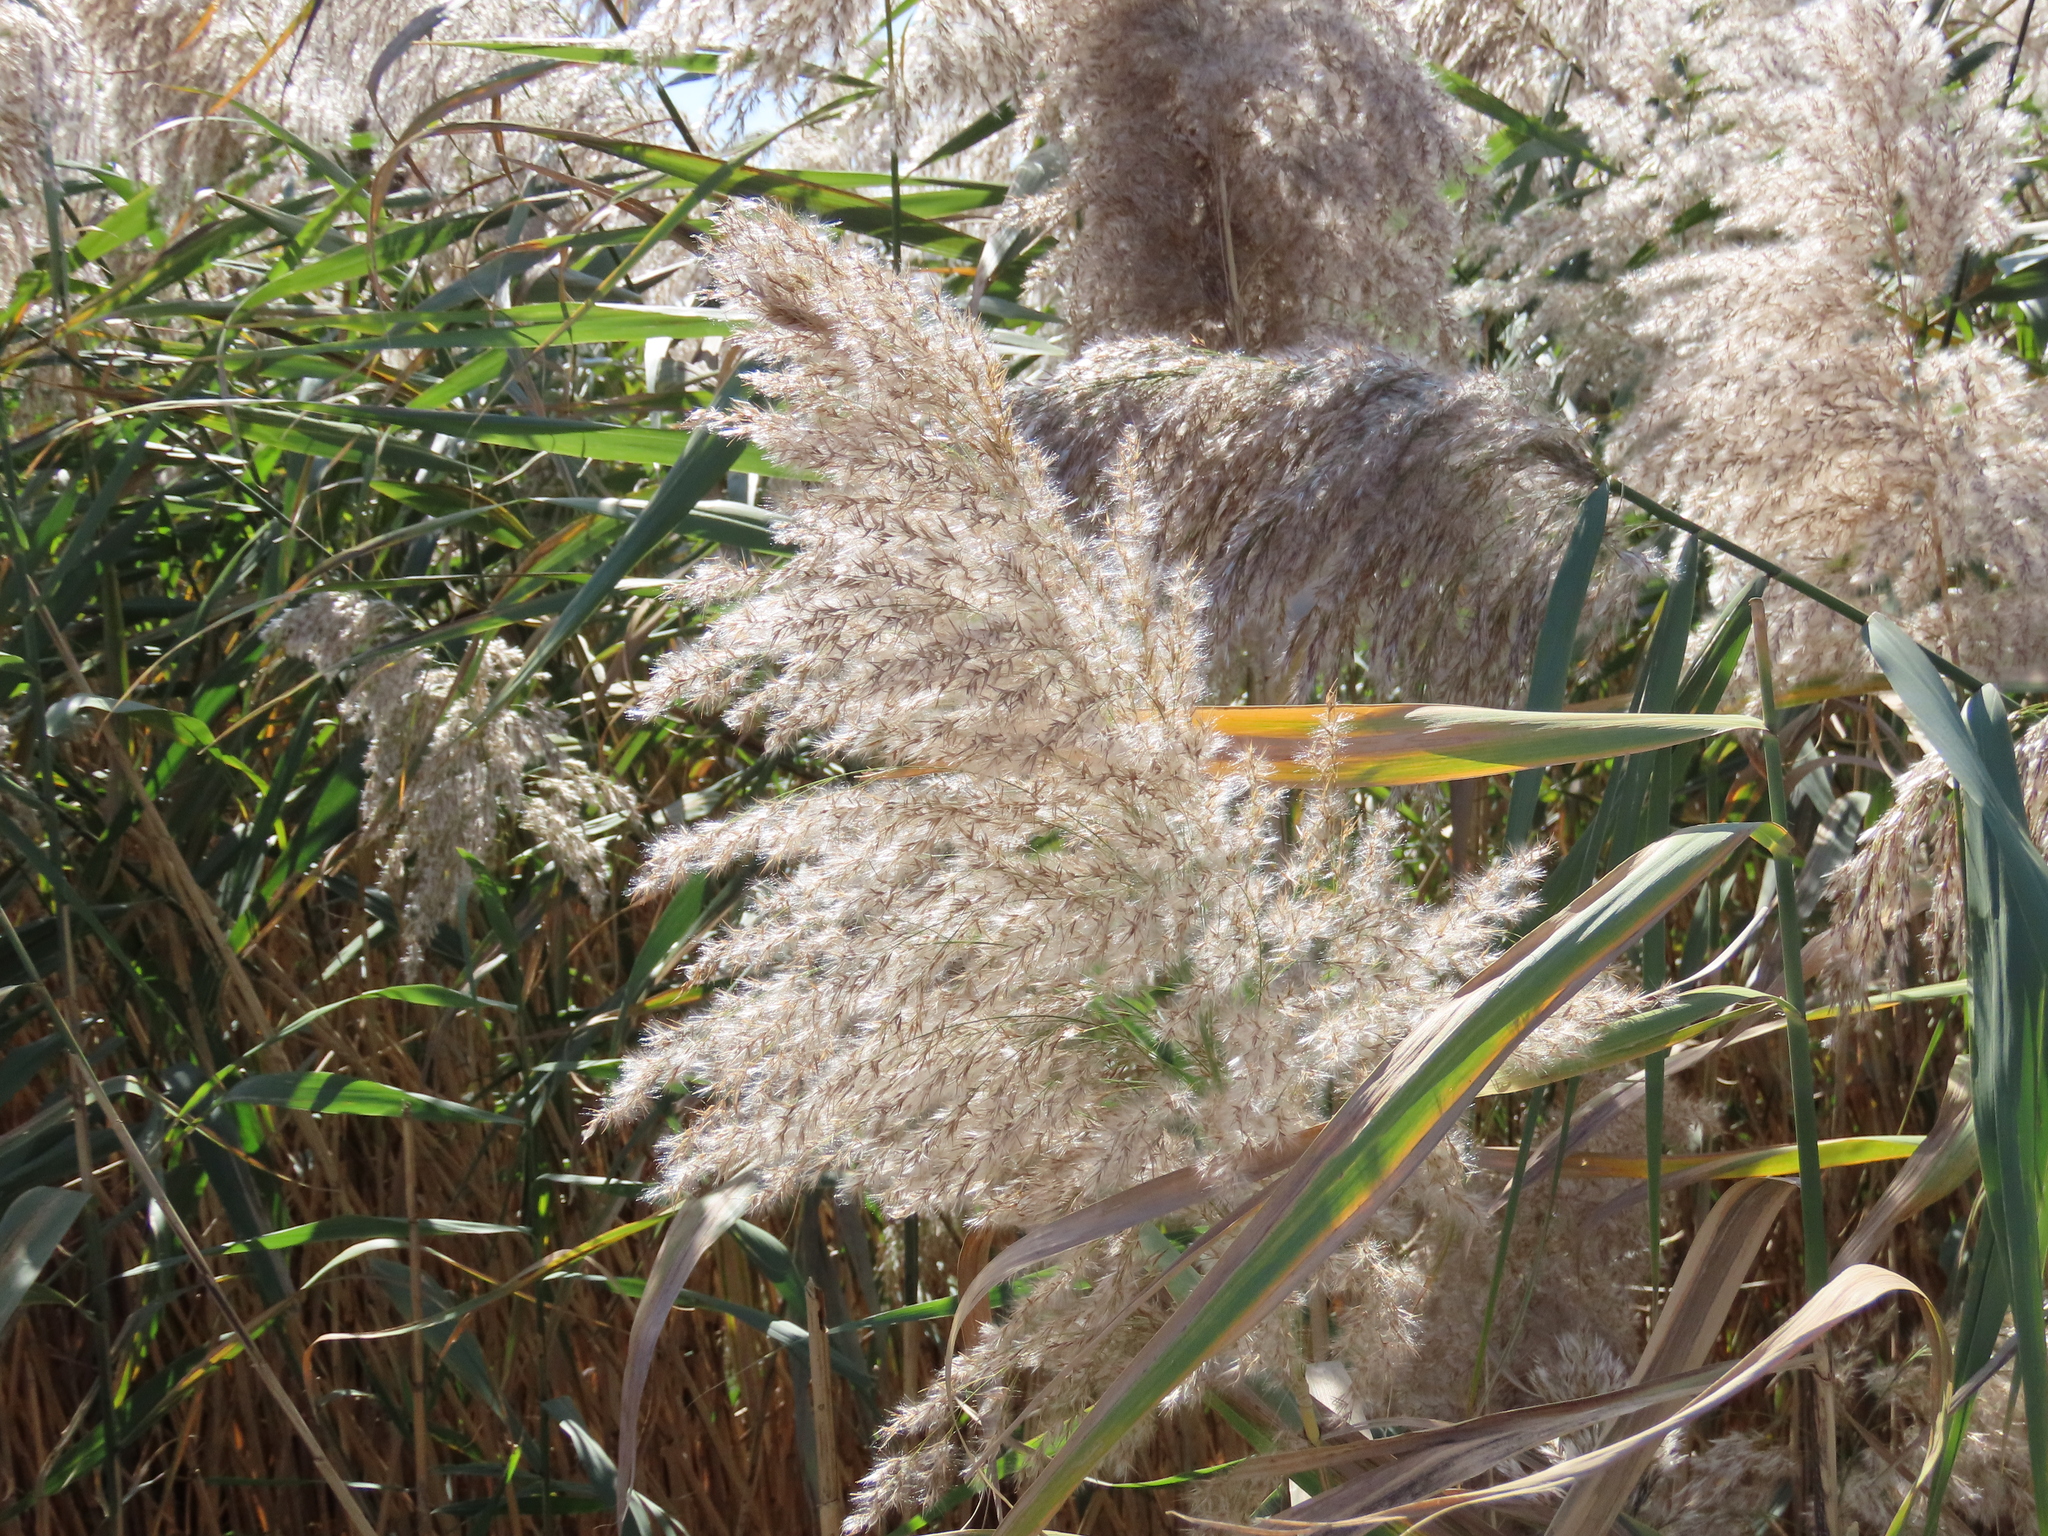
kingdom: Plantae
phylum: Tracheophyta
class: Liliopsida
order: Poales
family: Poaceae
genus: Phragmites
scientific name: Phragmites australis
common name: Common reed
